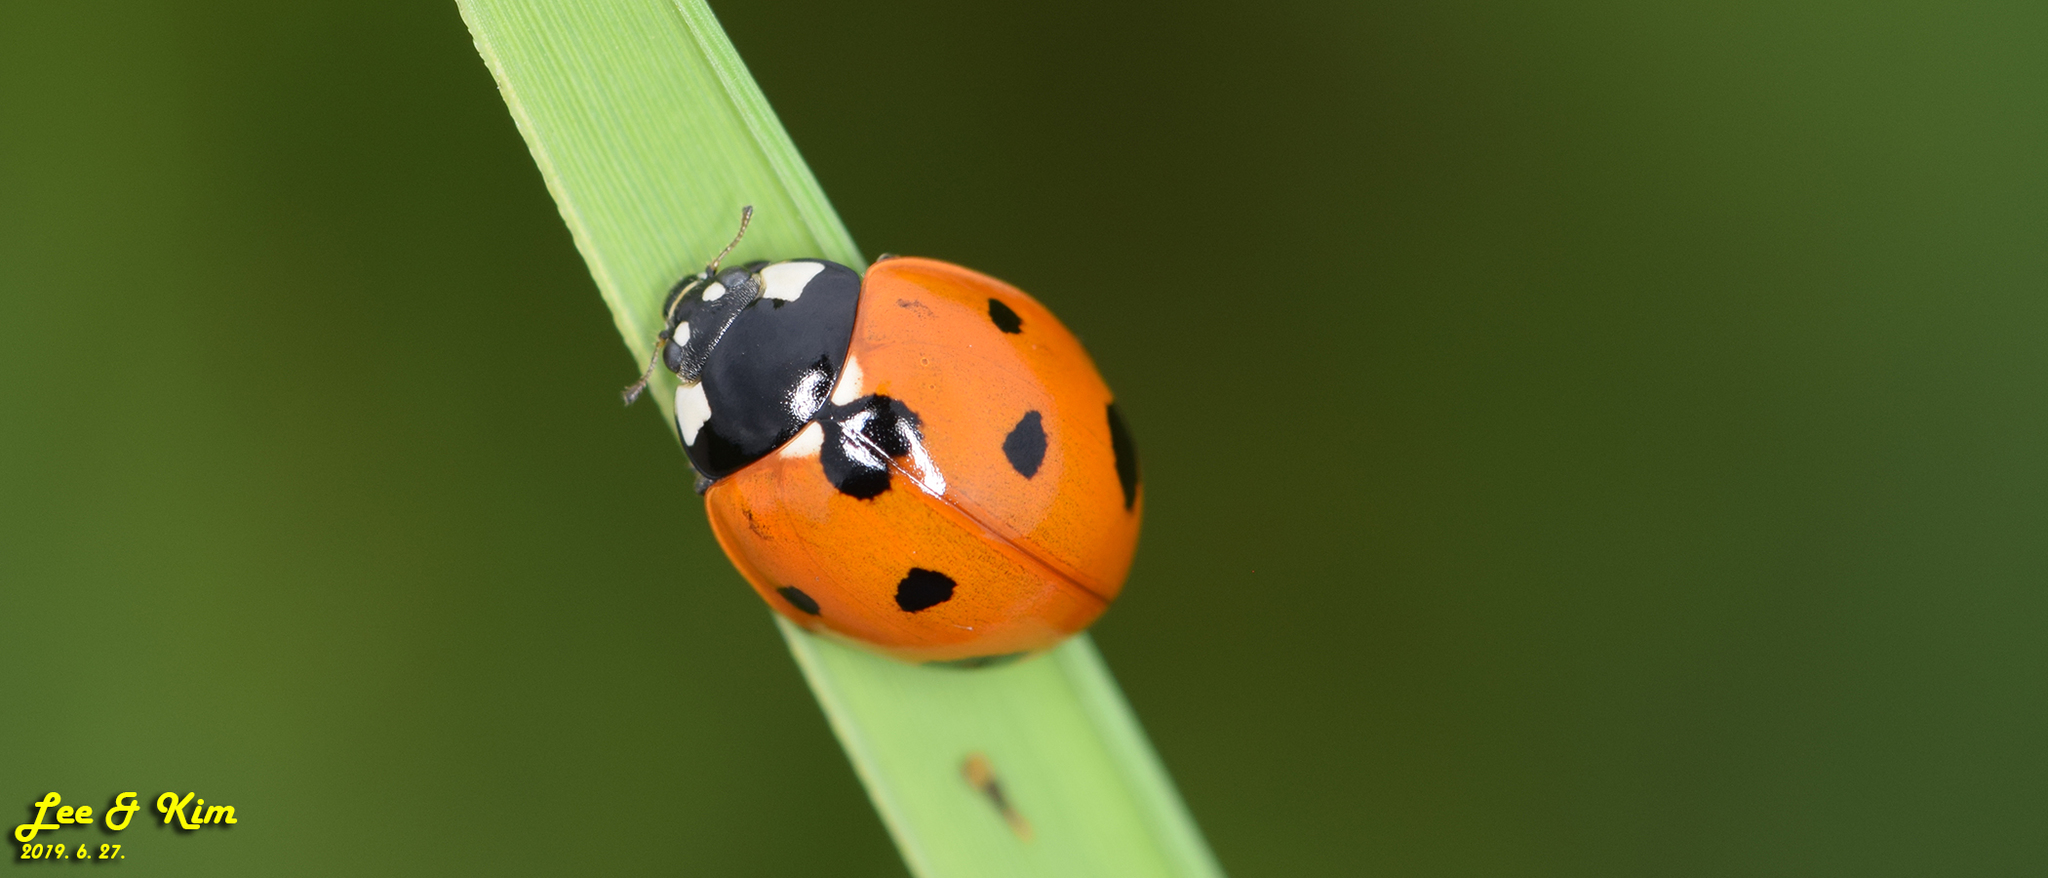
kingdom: Animalia
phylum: Arthropoda
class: Insecta
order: Coleoptera
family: Coccinellidae
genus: Coccinella
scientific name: Coccinella septempunctata
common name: Sevenspotted lady beetle
